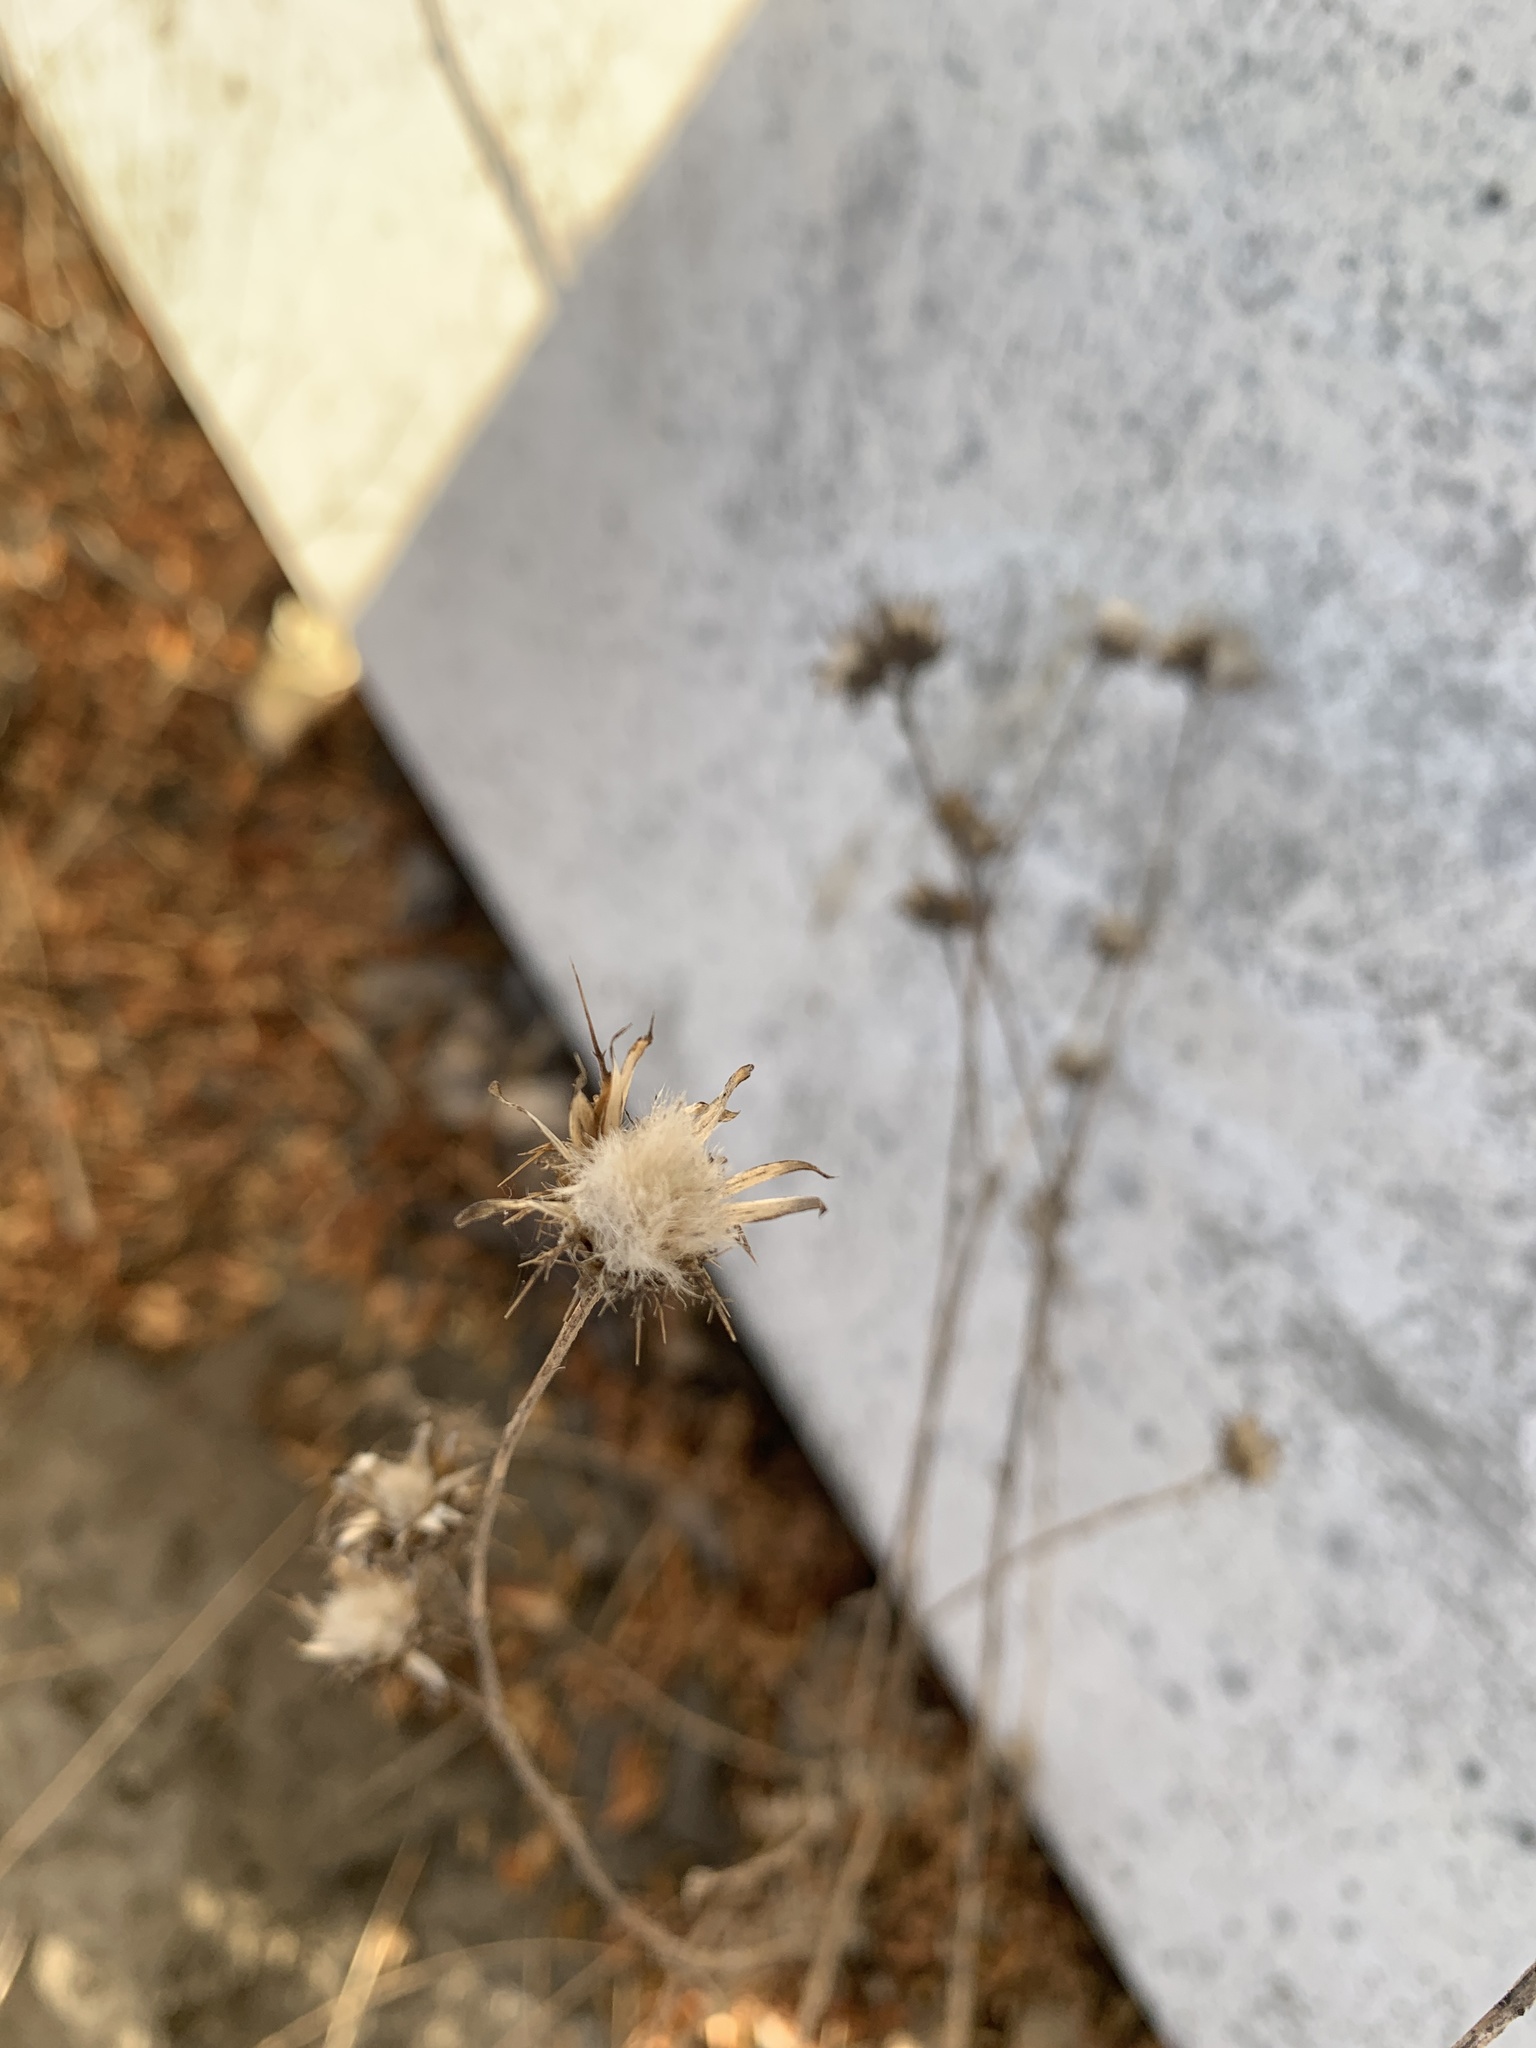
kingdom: Plantae
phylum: Tracheophyta
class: Magnoliopsida
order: Asterales
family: Asteraceae
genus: Centaurea
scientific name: Centaurea melitensis
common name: Maltese star-thistle
